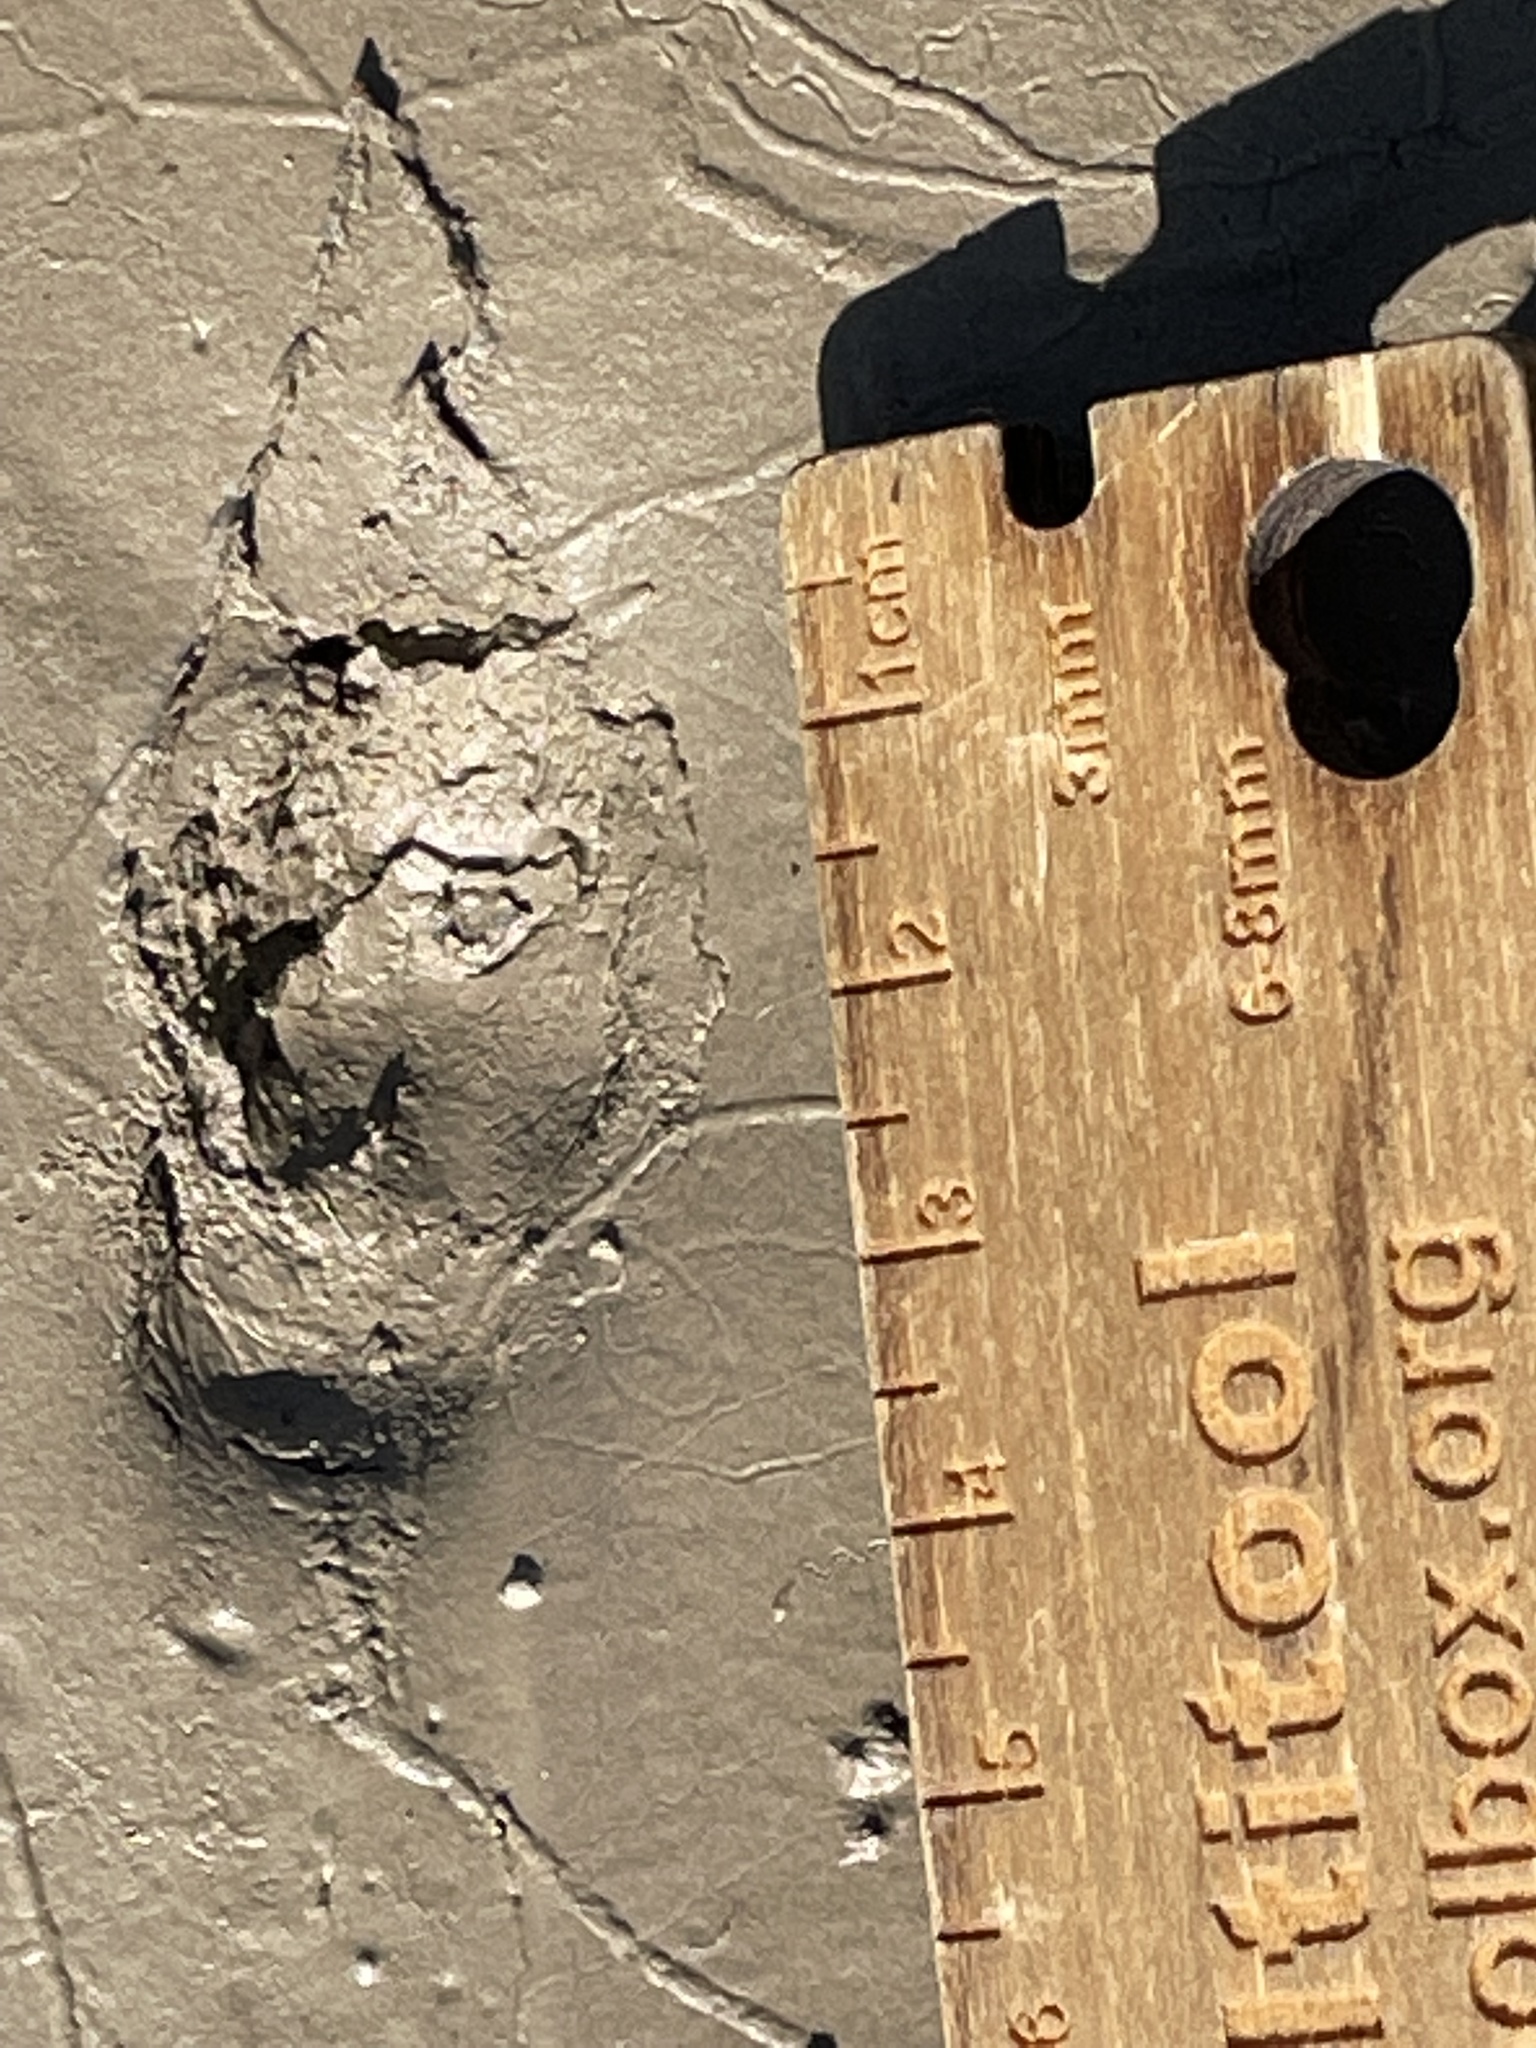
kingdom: Animalia
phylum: Chordata
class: Mammalia
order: Carnivora
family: Mephitidae
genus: Mephitis
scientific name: Mephitis mephitis
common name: Striped skunk
